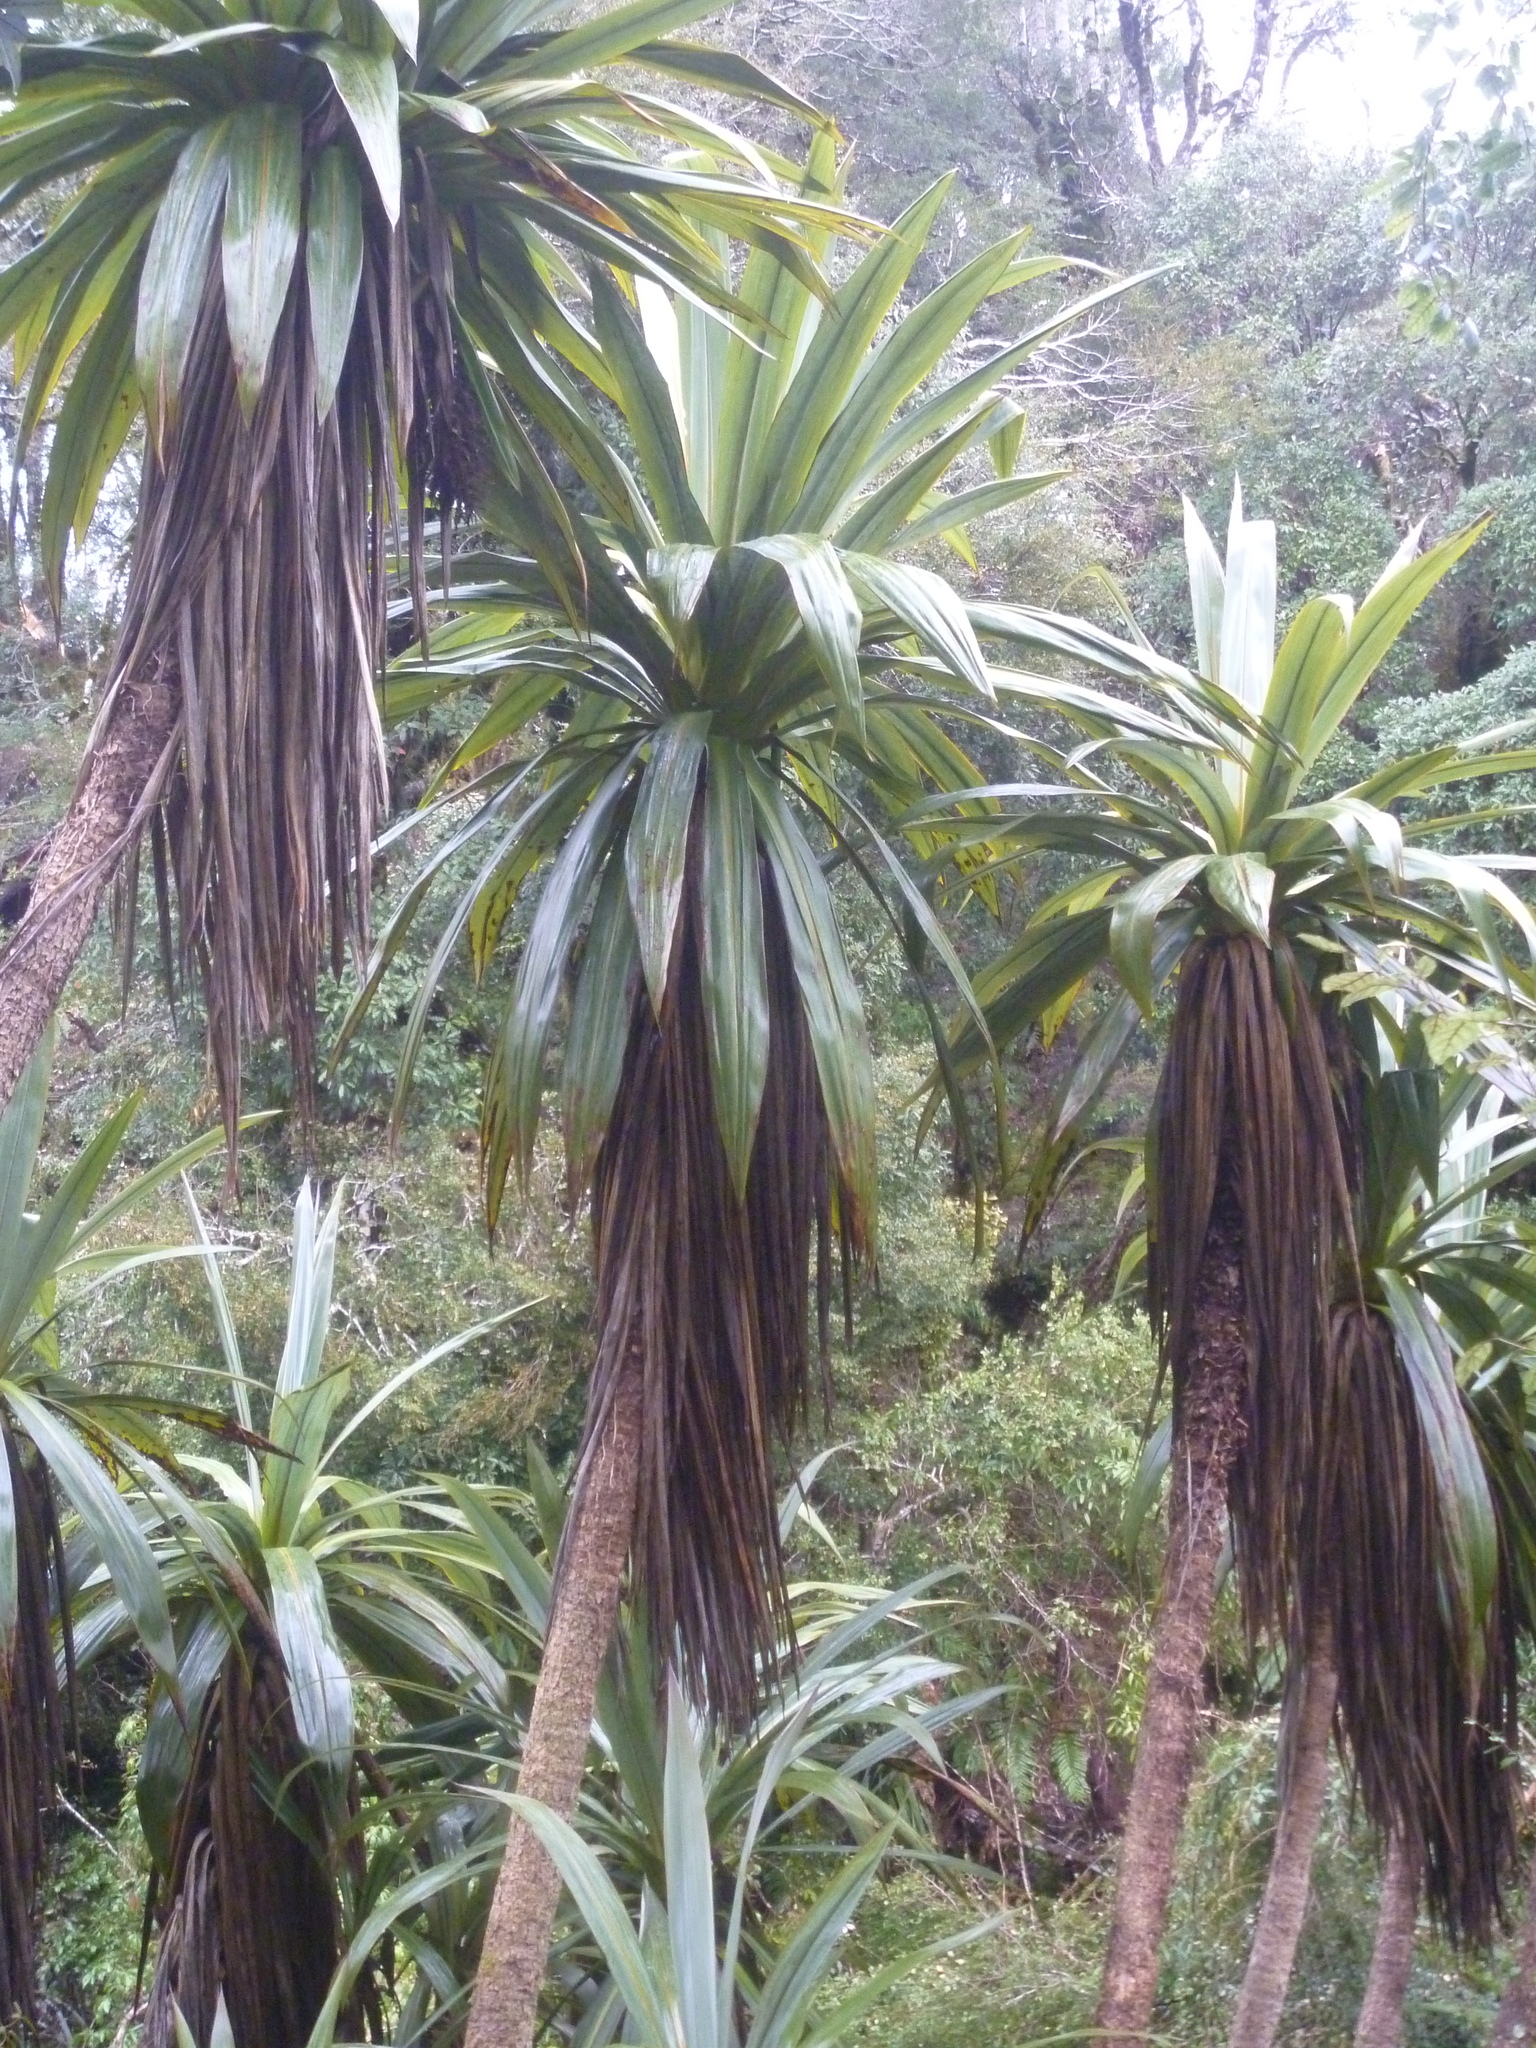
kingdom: Plantae
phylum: Tracheophyta
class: Liliopsida
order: Asparagales
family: Asparagaceae
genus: Cordyline
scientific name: Cordyline indivisa
